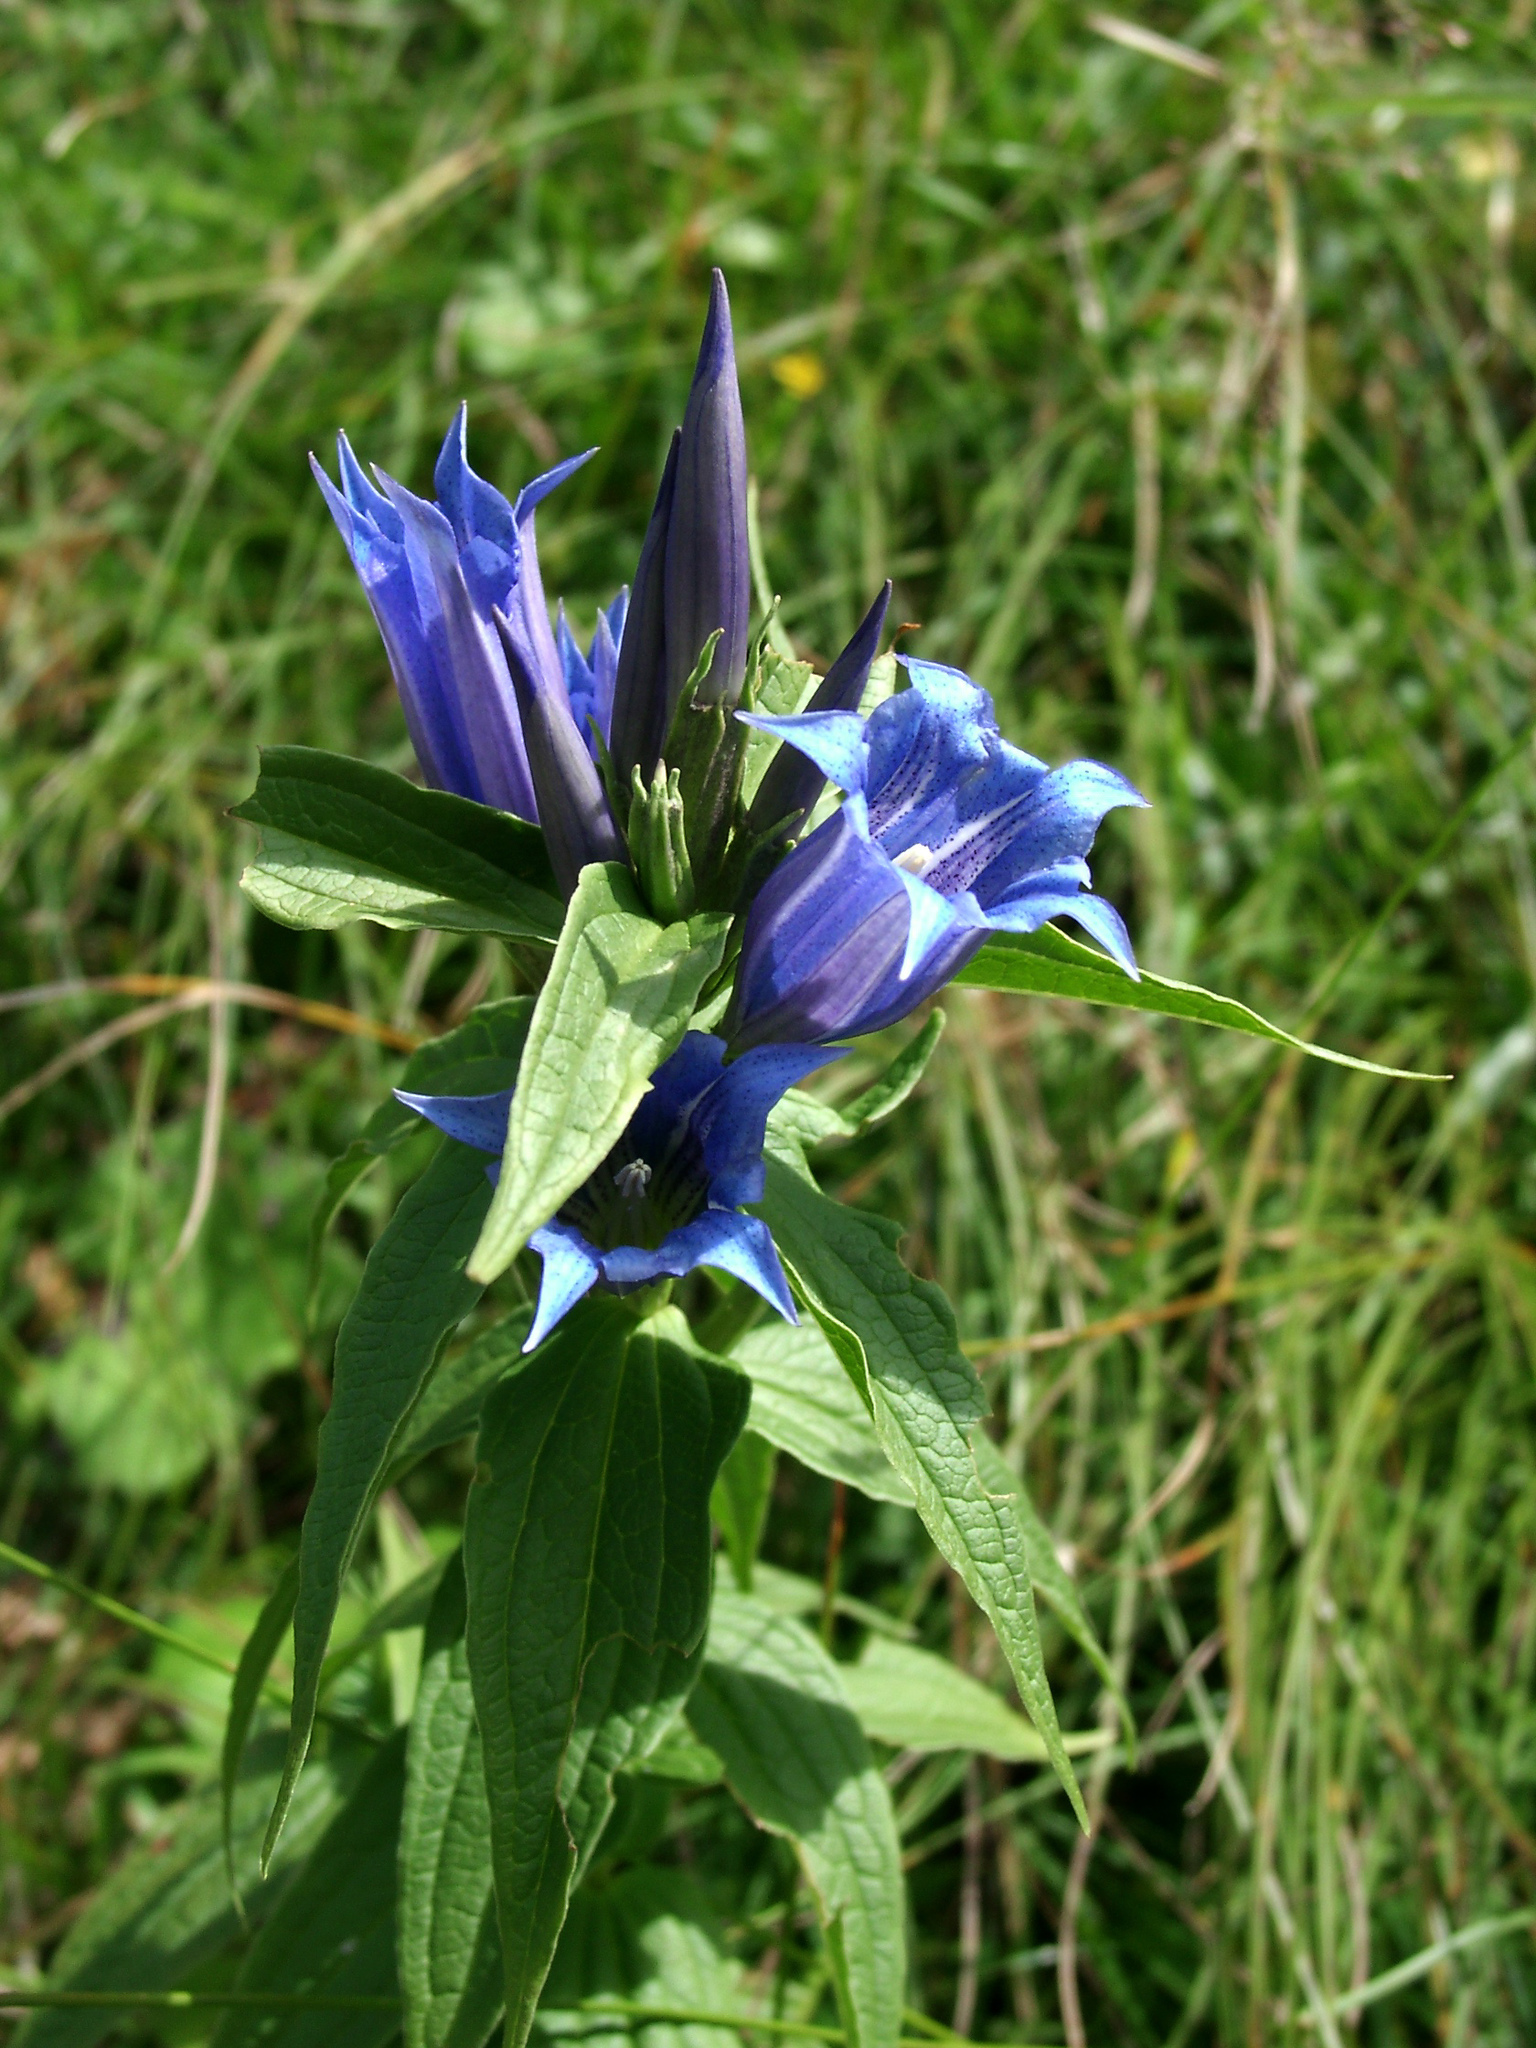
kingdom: Plantae
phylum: Tracheophyta
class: Magnoliopsida
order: Gentianales
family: Gentianaceae
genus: Gentiana
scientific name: Gentiana asclepiadea
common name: Willow gentian
